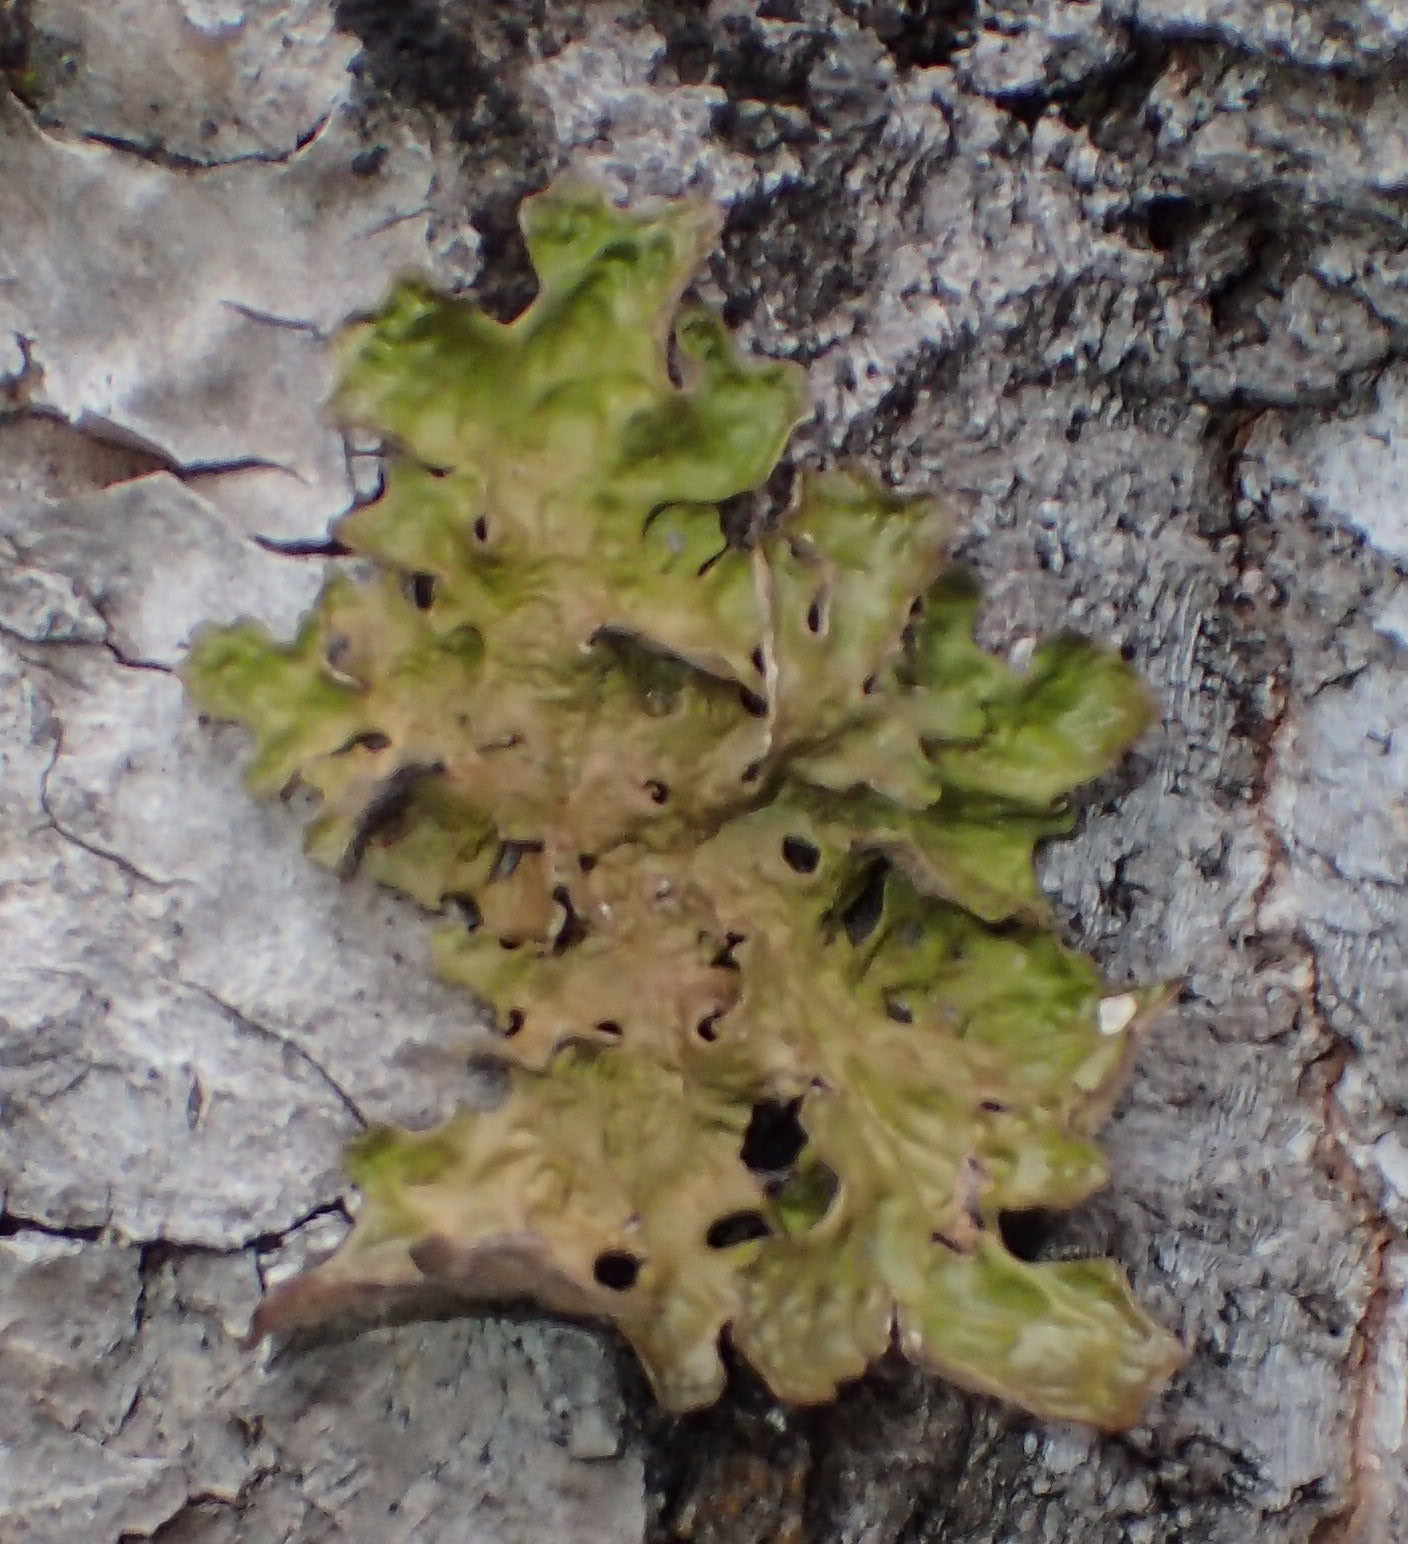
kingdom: Fungi
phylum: Ascomycota
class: Lecanoromycetes
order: Peltigerales
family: Lobariaceae
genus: Lobaria
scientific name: Lobaria linita
